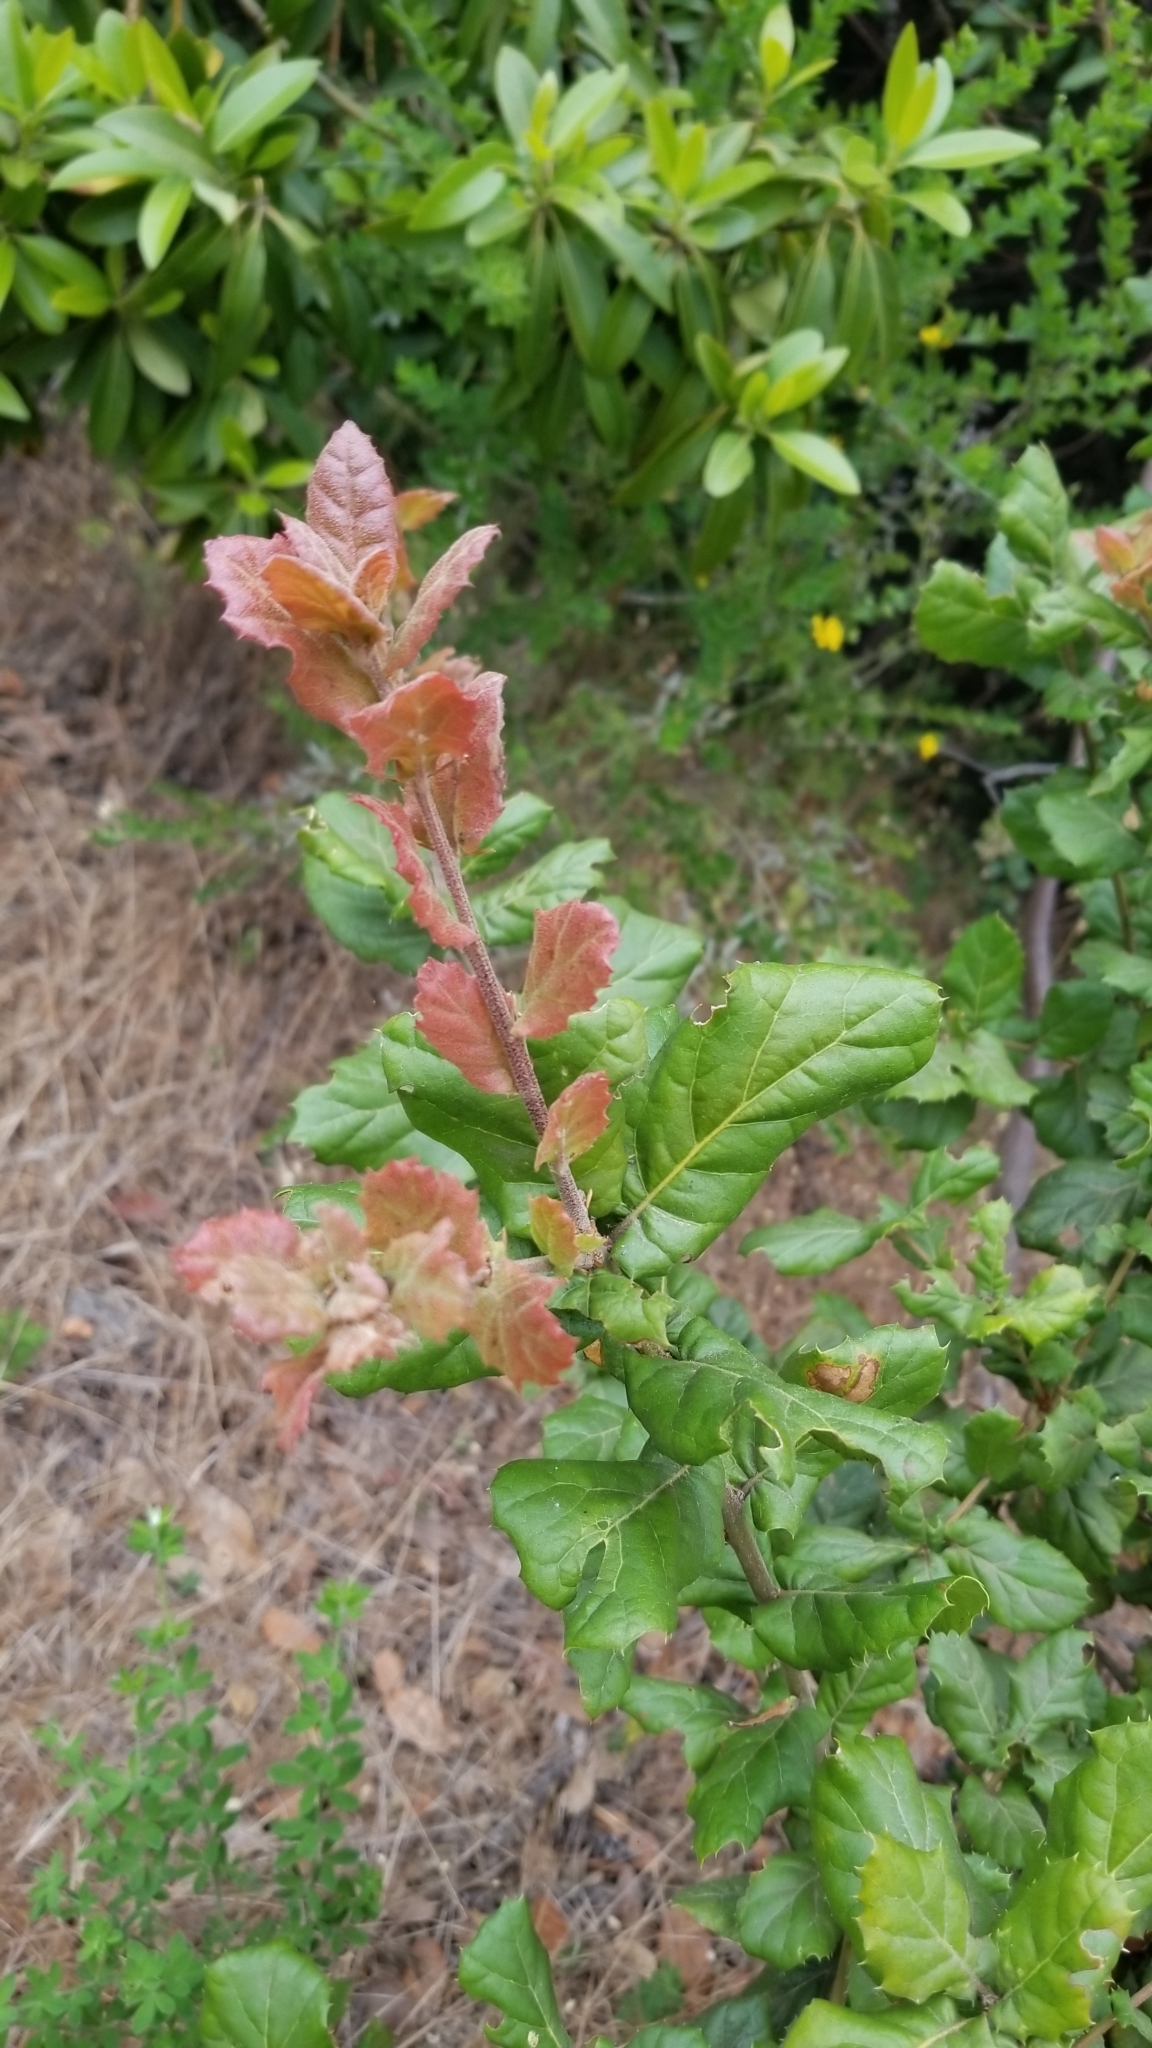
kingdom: Plantae
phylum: Tracheophyta
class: Magnoliopsida
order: Fagales
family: Fagaceae
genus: Quercus
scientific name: Quercus agrifolia
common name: California live oak
